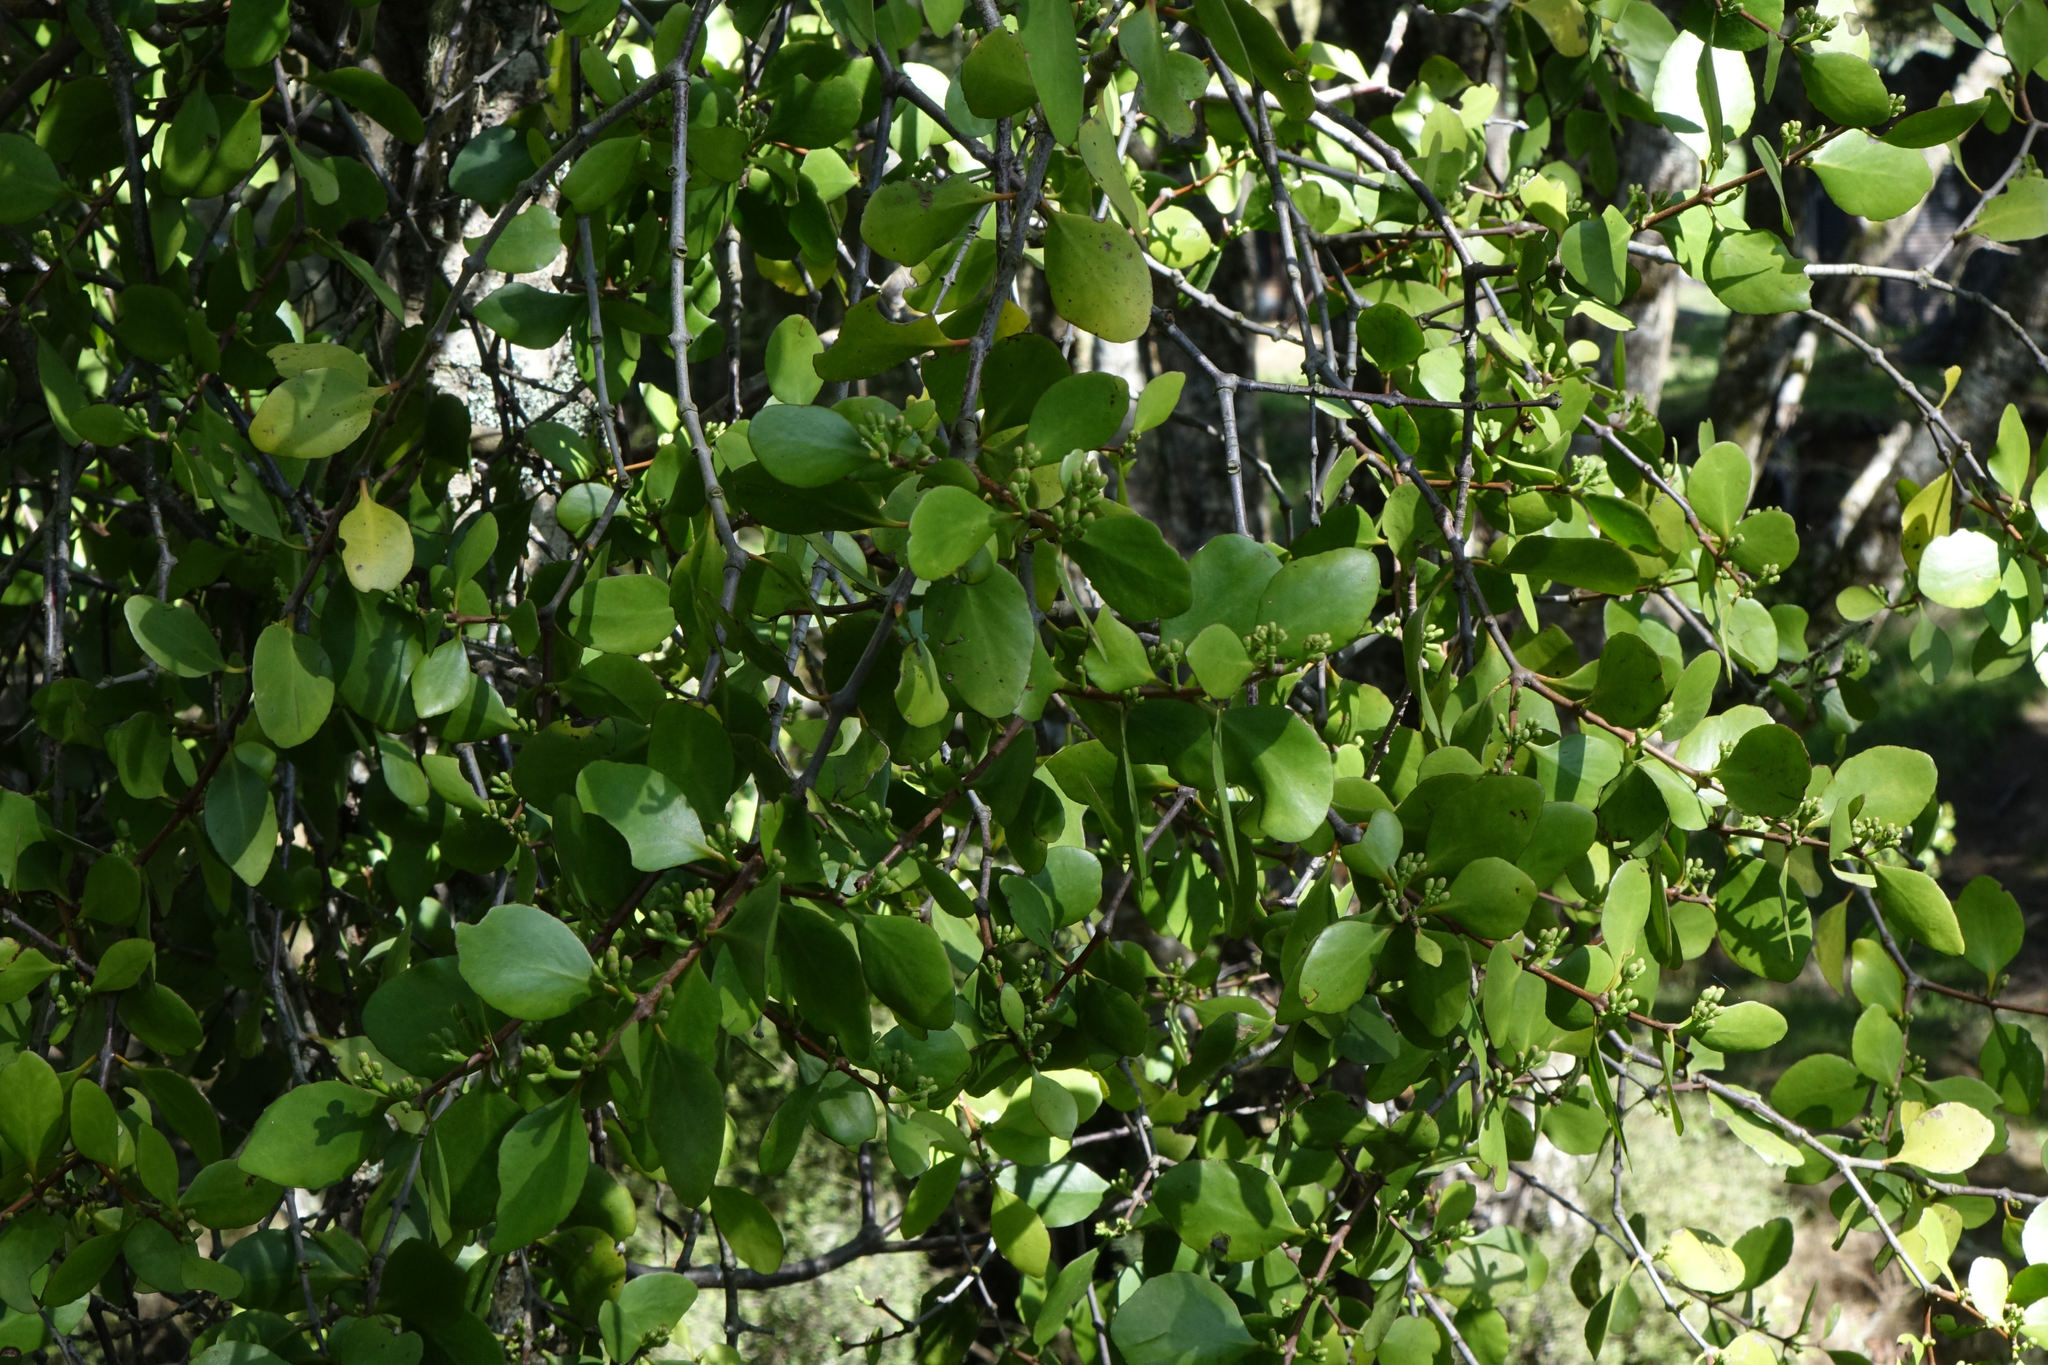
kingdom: Plantae
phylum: Tracheophyta
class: Magnoliopsida
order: Santalales
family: Loranthaceae
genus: Peraxilla
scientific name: Peraxilla colensoi
